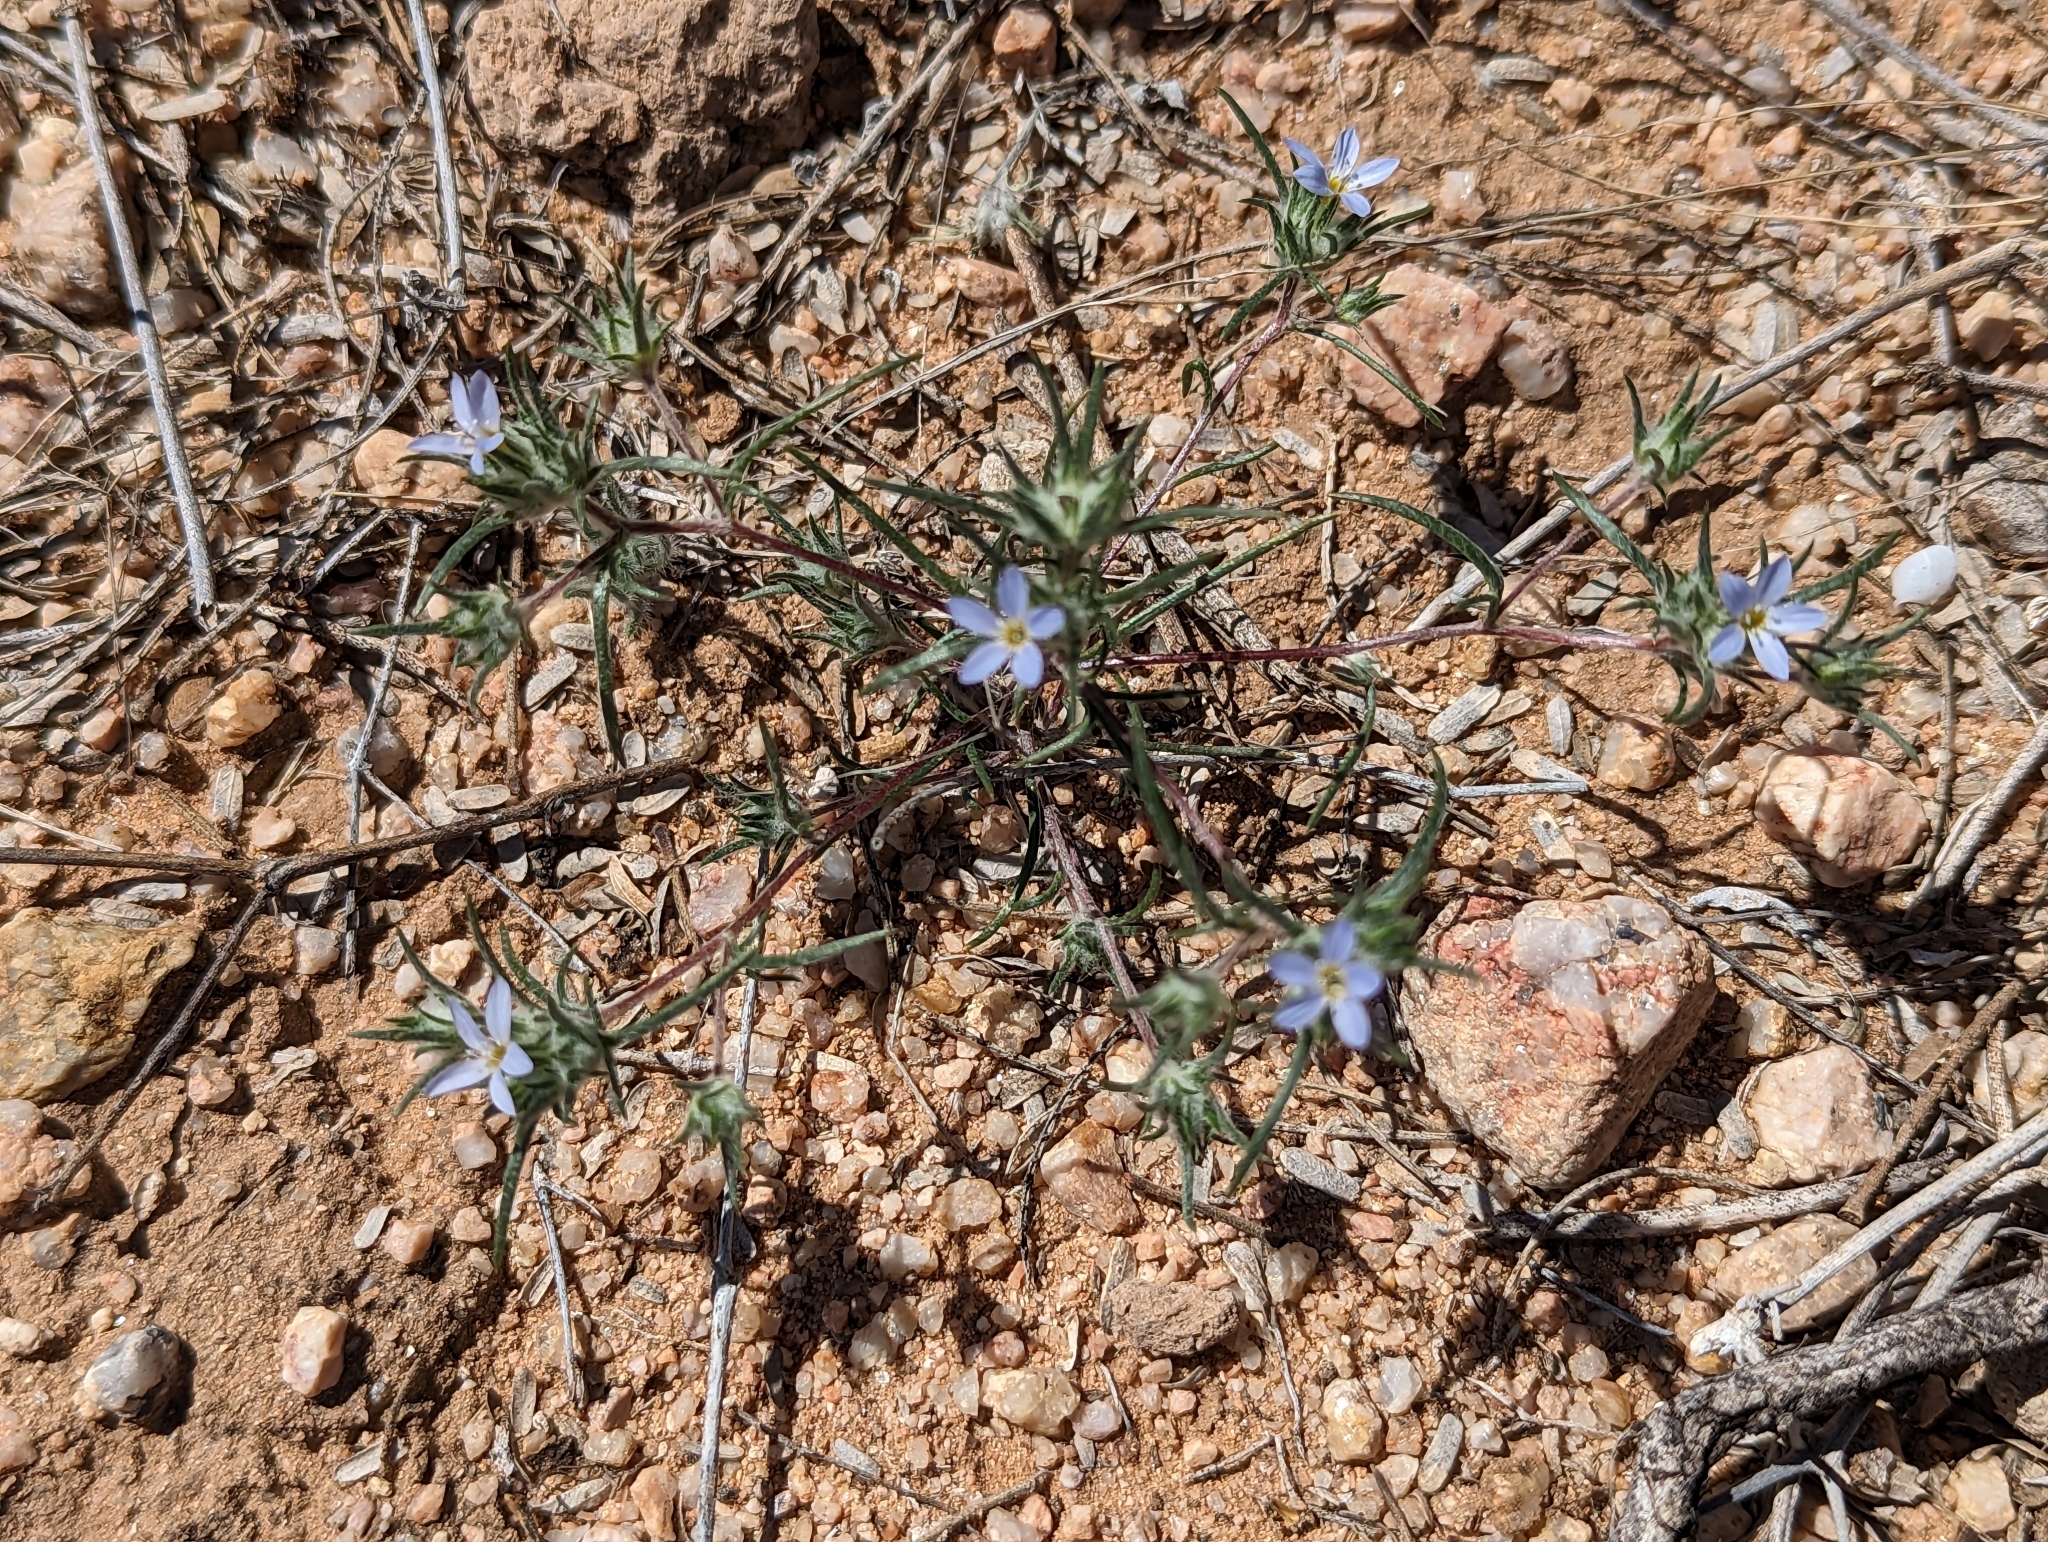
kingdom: Plantae
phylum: Tracheophyta
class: Magnoliopsida
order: Ericales
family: Polemoniaceae
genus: Eriastrum
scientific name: Eriastrum diffusum
